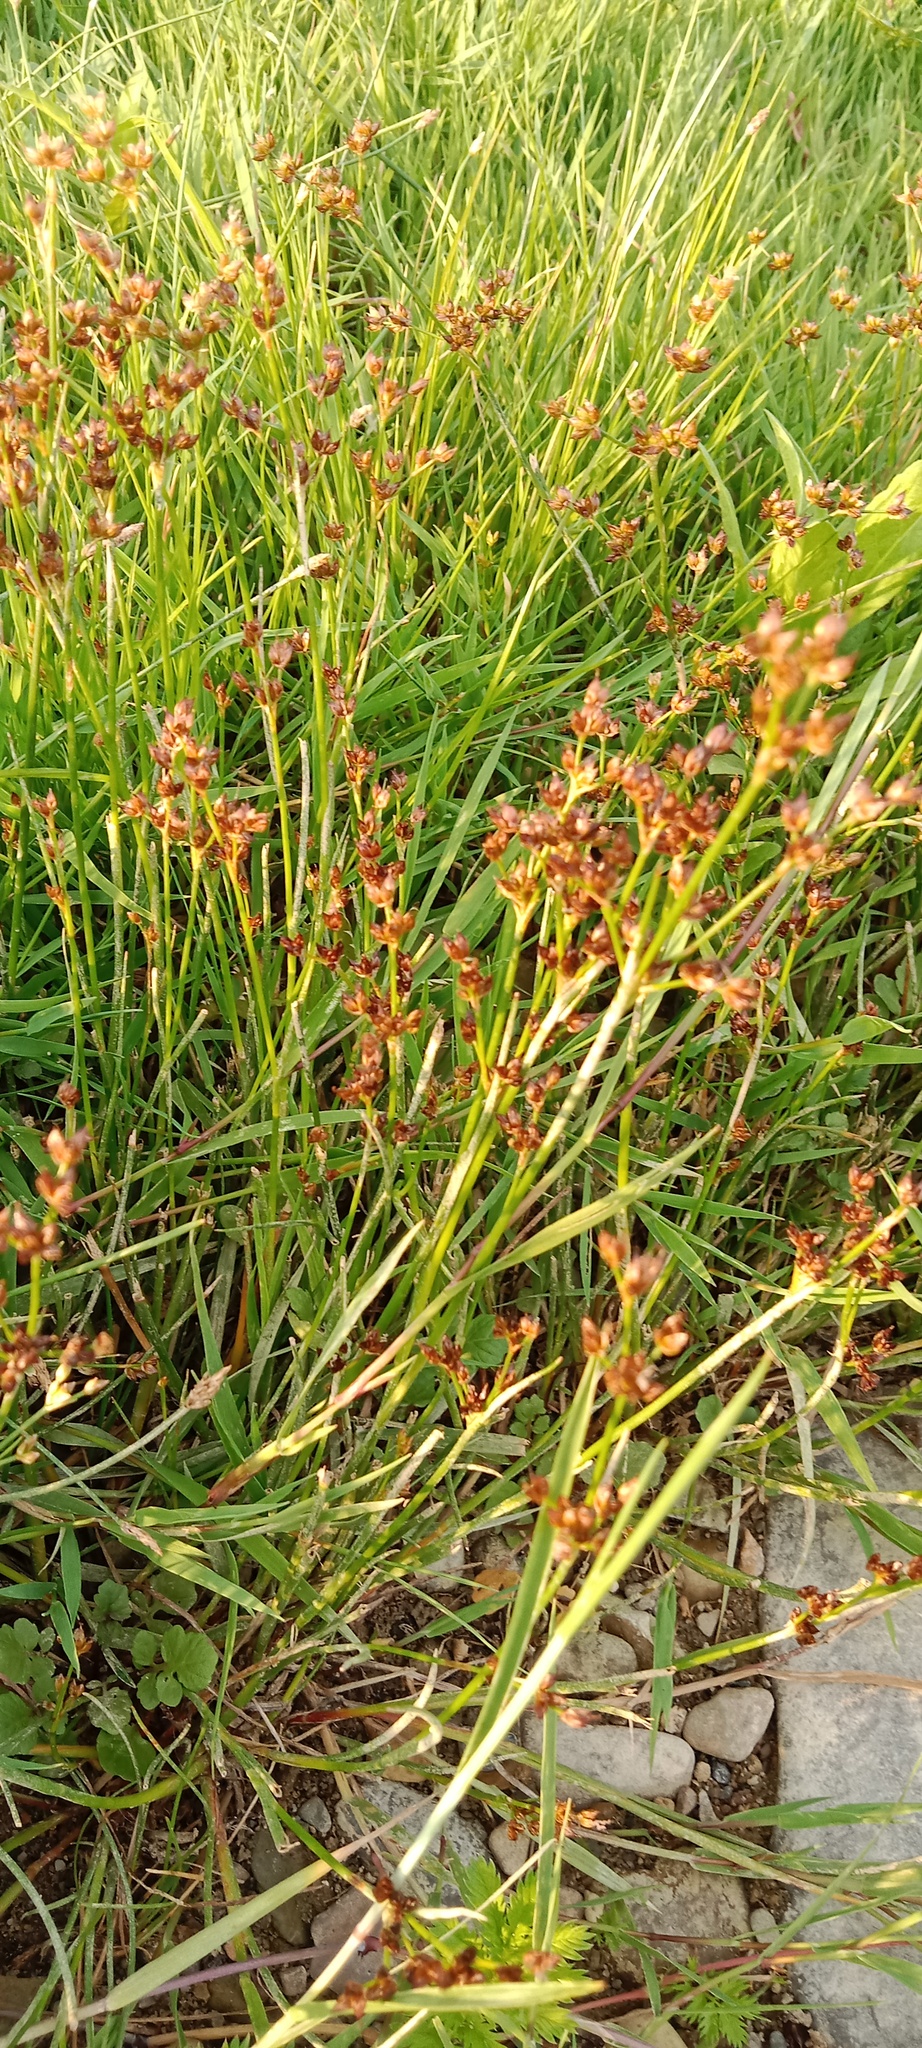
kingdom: Plantae
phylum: Tracheophyta
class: Liliopsida
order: Poales
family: Juncaceae
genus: Juncus
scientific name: Juncus articulatus
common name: Jointed rush
